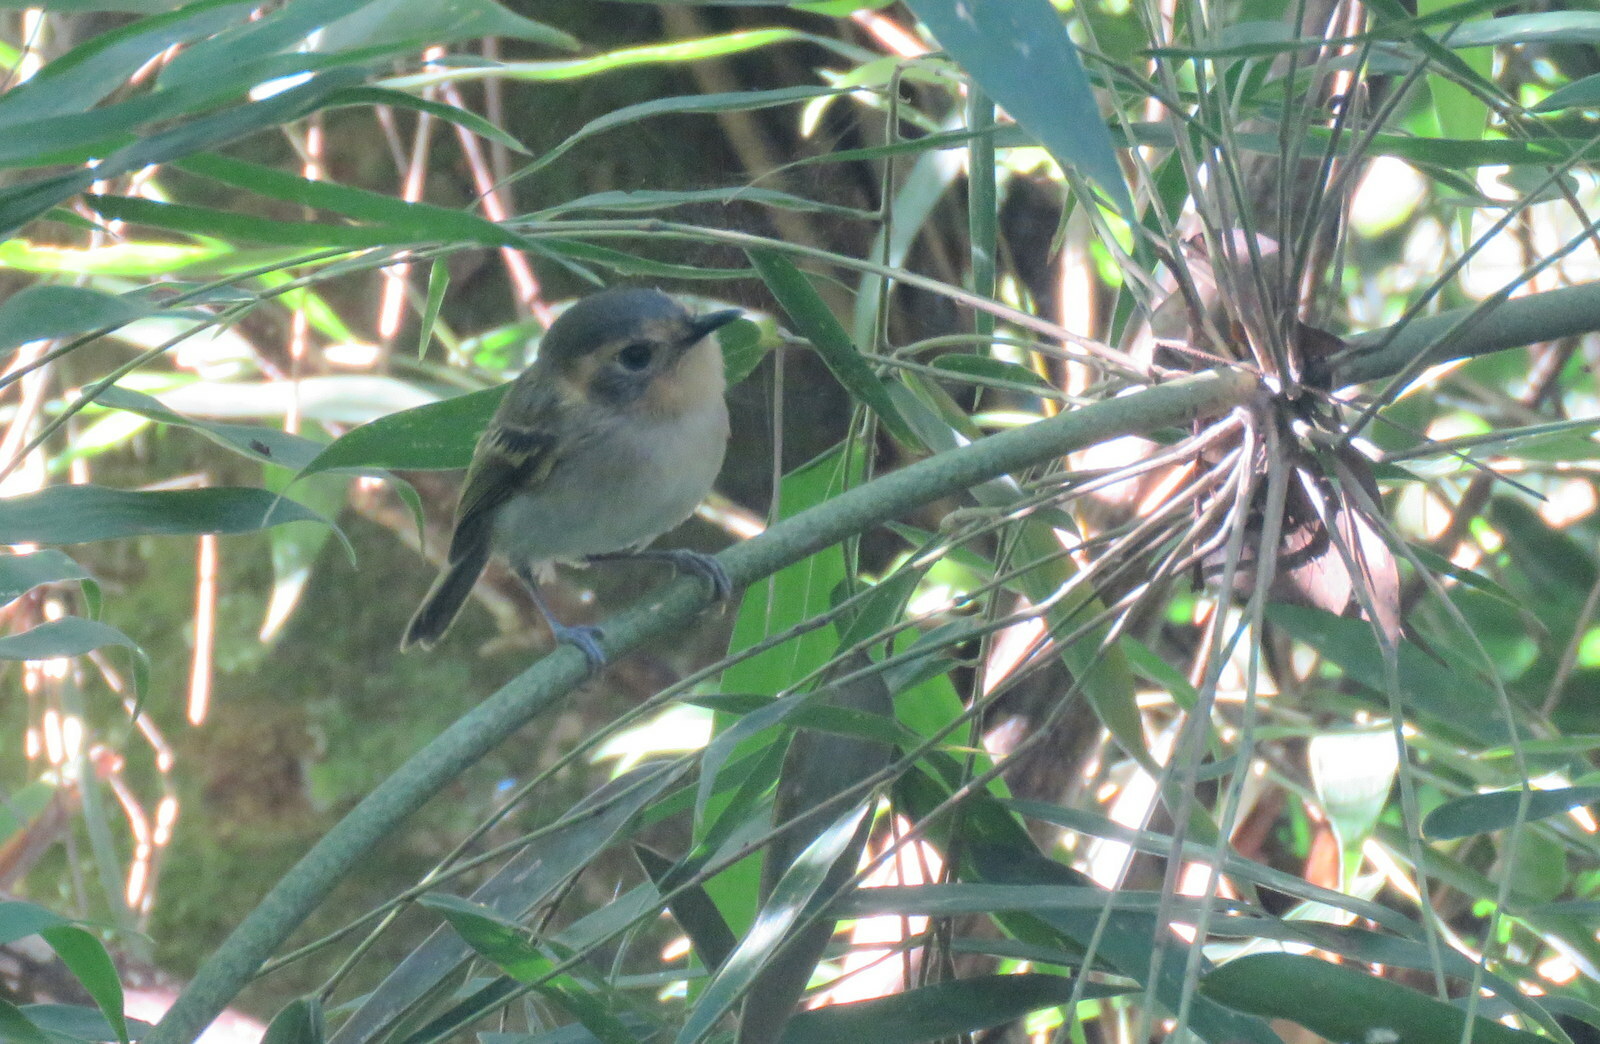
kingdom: Animalia
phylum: Chordata
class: Aves
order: Passeriformes
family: Tyrannidae
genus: Poecilotriccus
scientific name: Poecilotriccus plumbeiceps
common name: Ochre-faced tody-flycatcher
